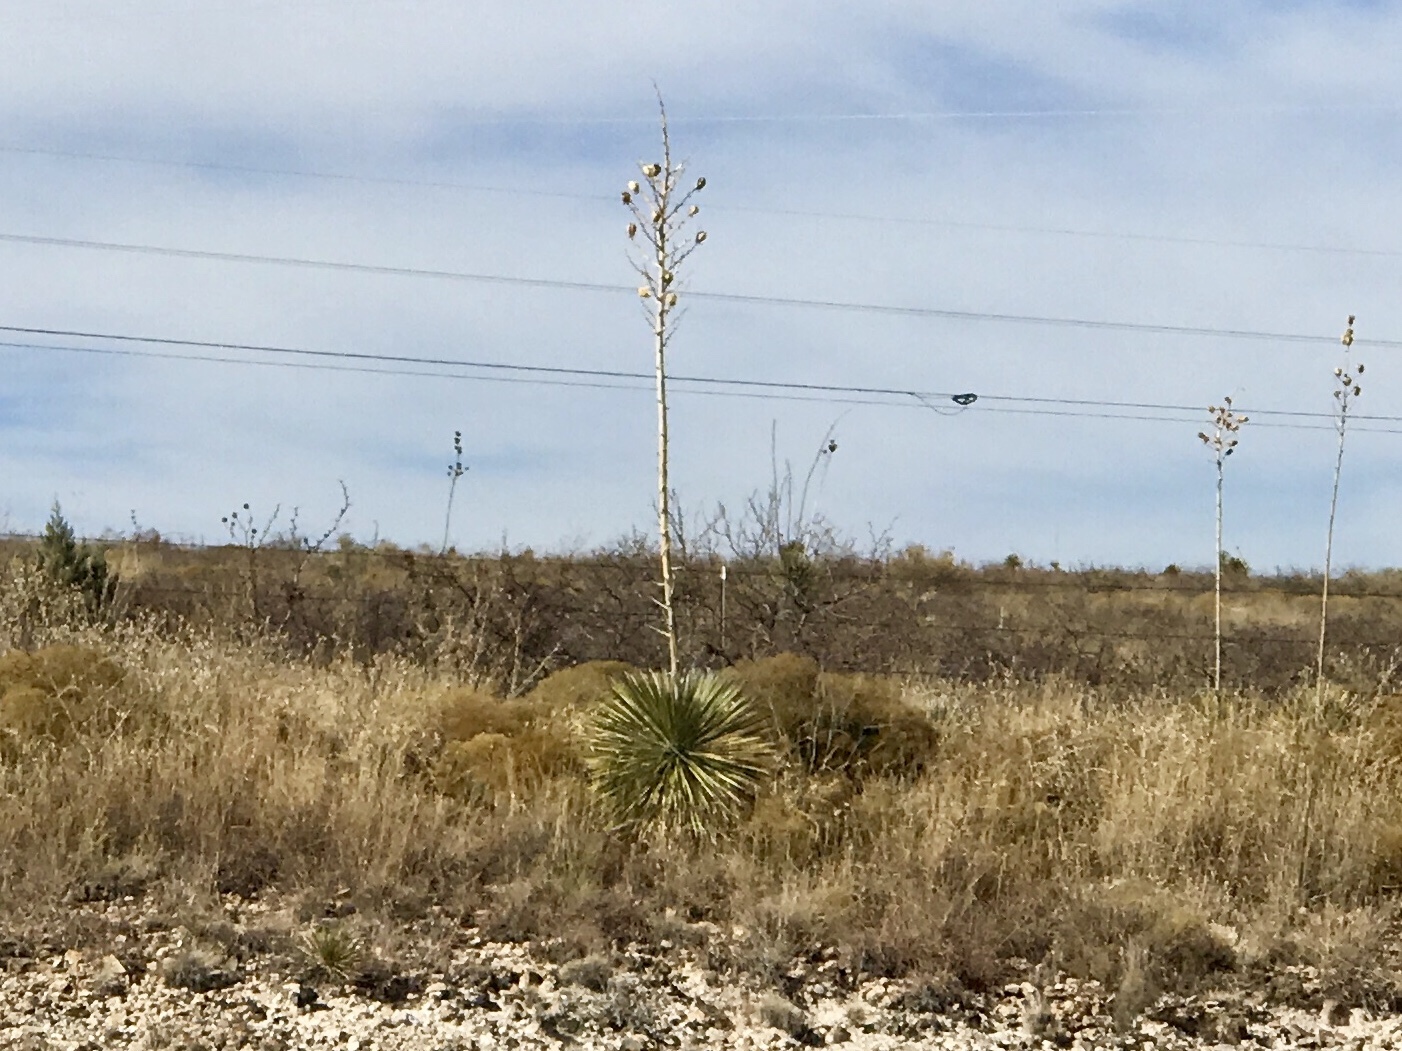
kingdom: Plantae
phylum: Tracheophyta
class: Liliopsida
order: Asparagales
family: Asparagaceae
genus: Yucca
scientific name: Yucca elata
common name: Palmella
